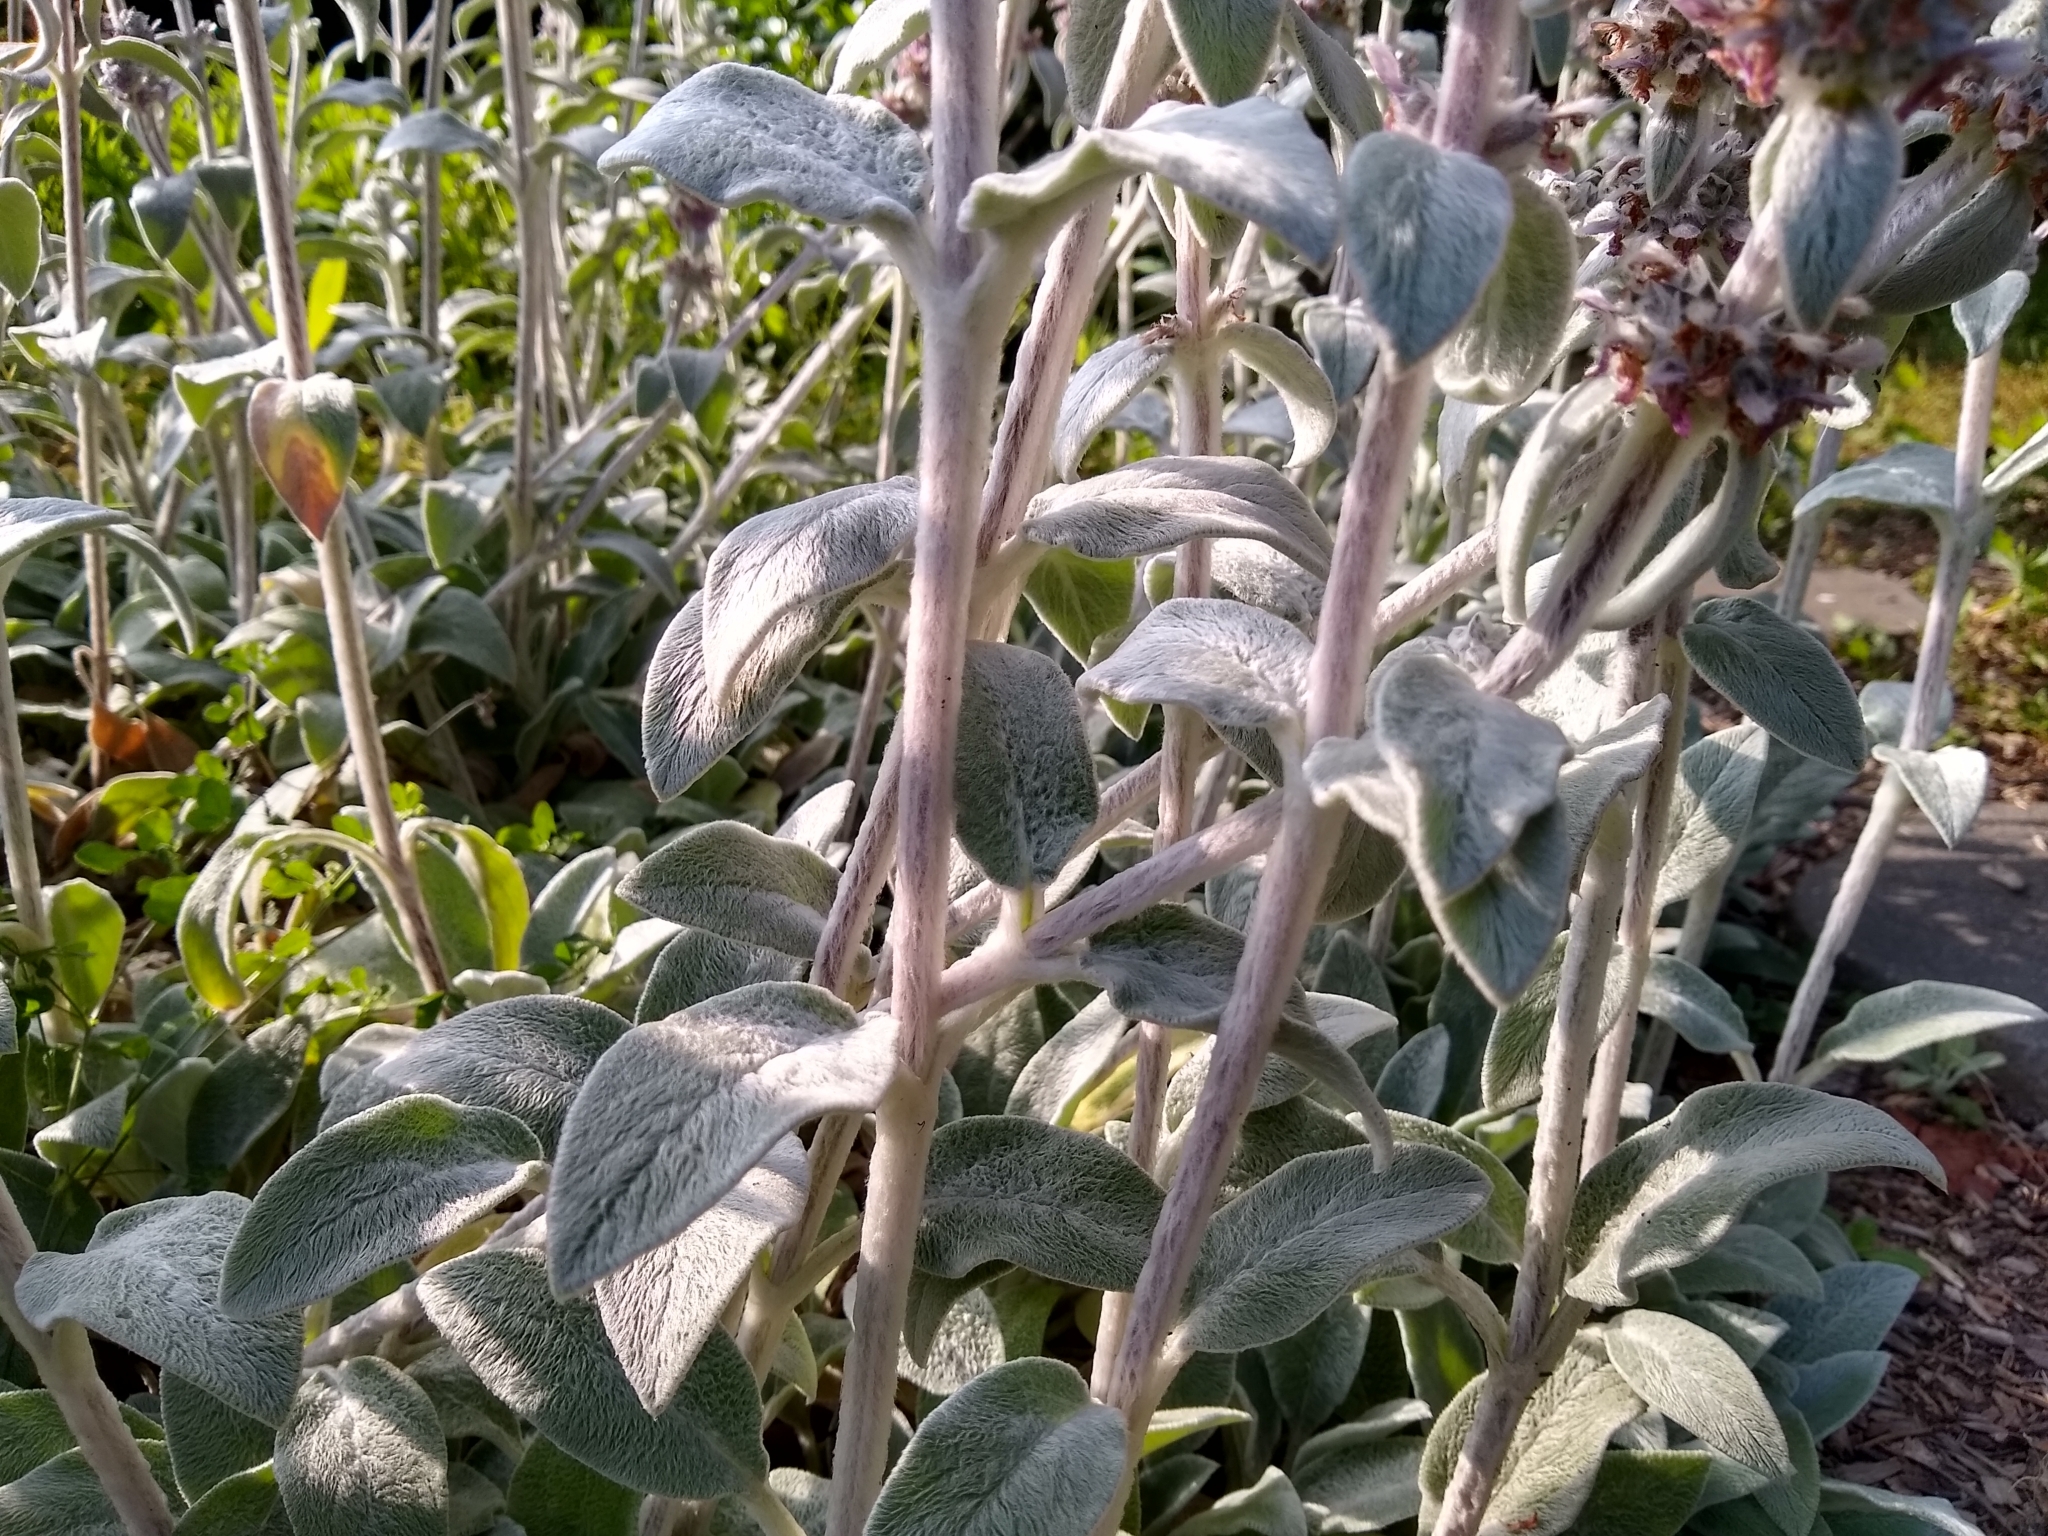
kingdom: Plantae
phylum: Tracheophyta
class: Magnoliopsida
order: Lamiales
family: Lamiaceae
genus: Stachys
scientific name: Stachys byzantina
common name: Lamb's-ear
